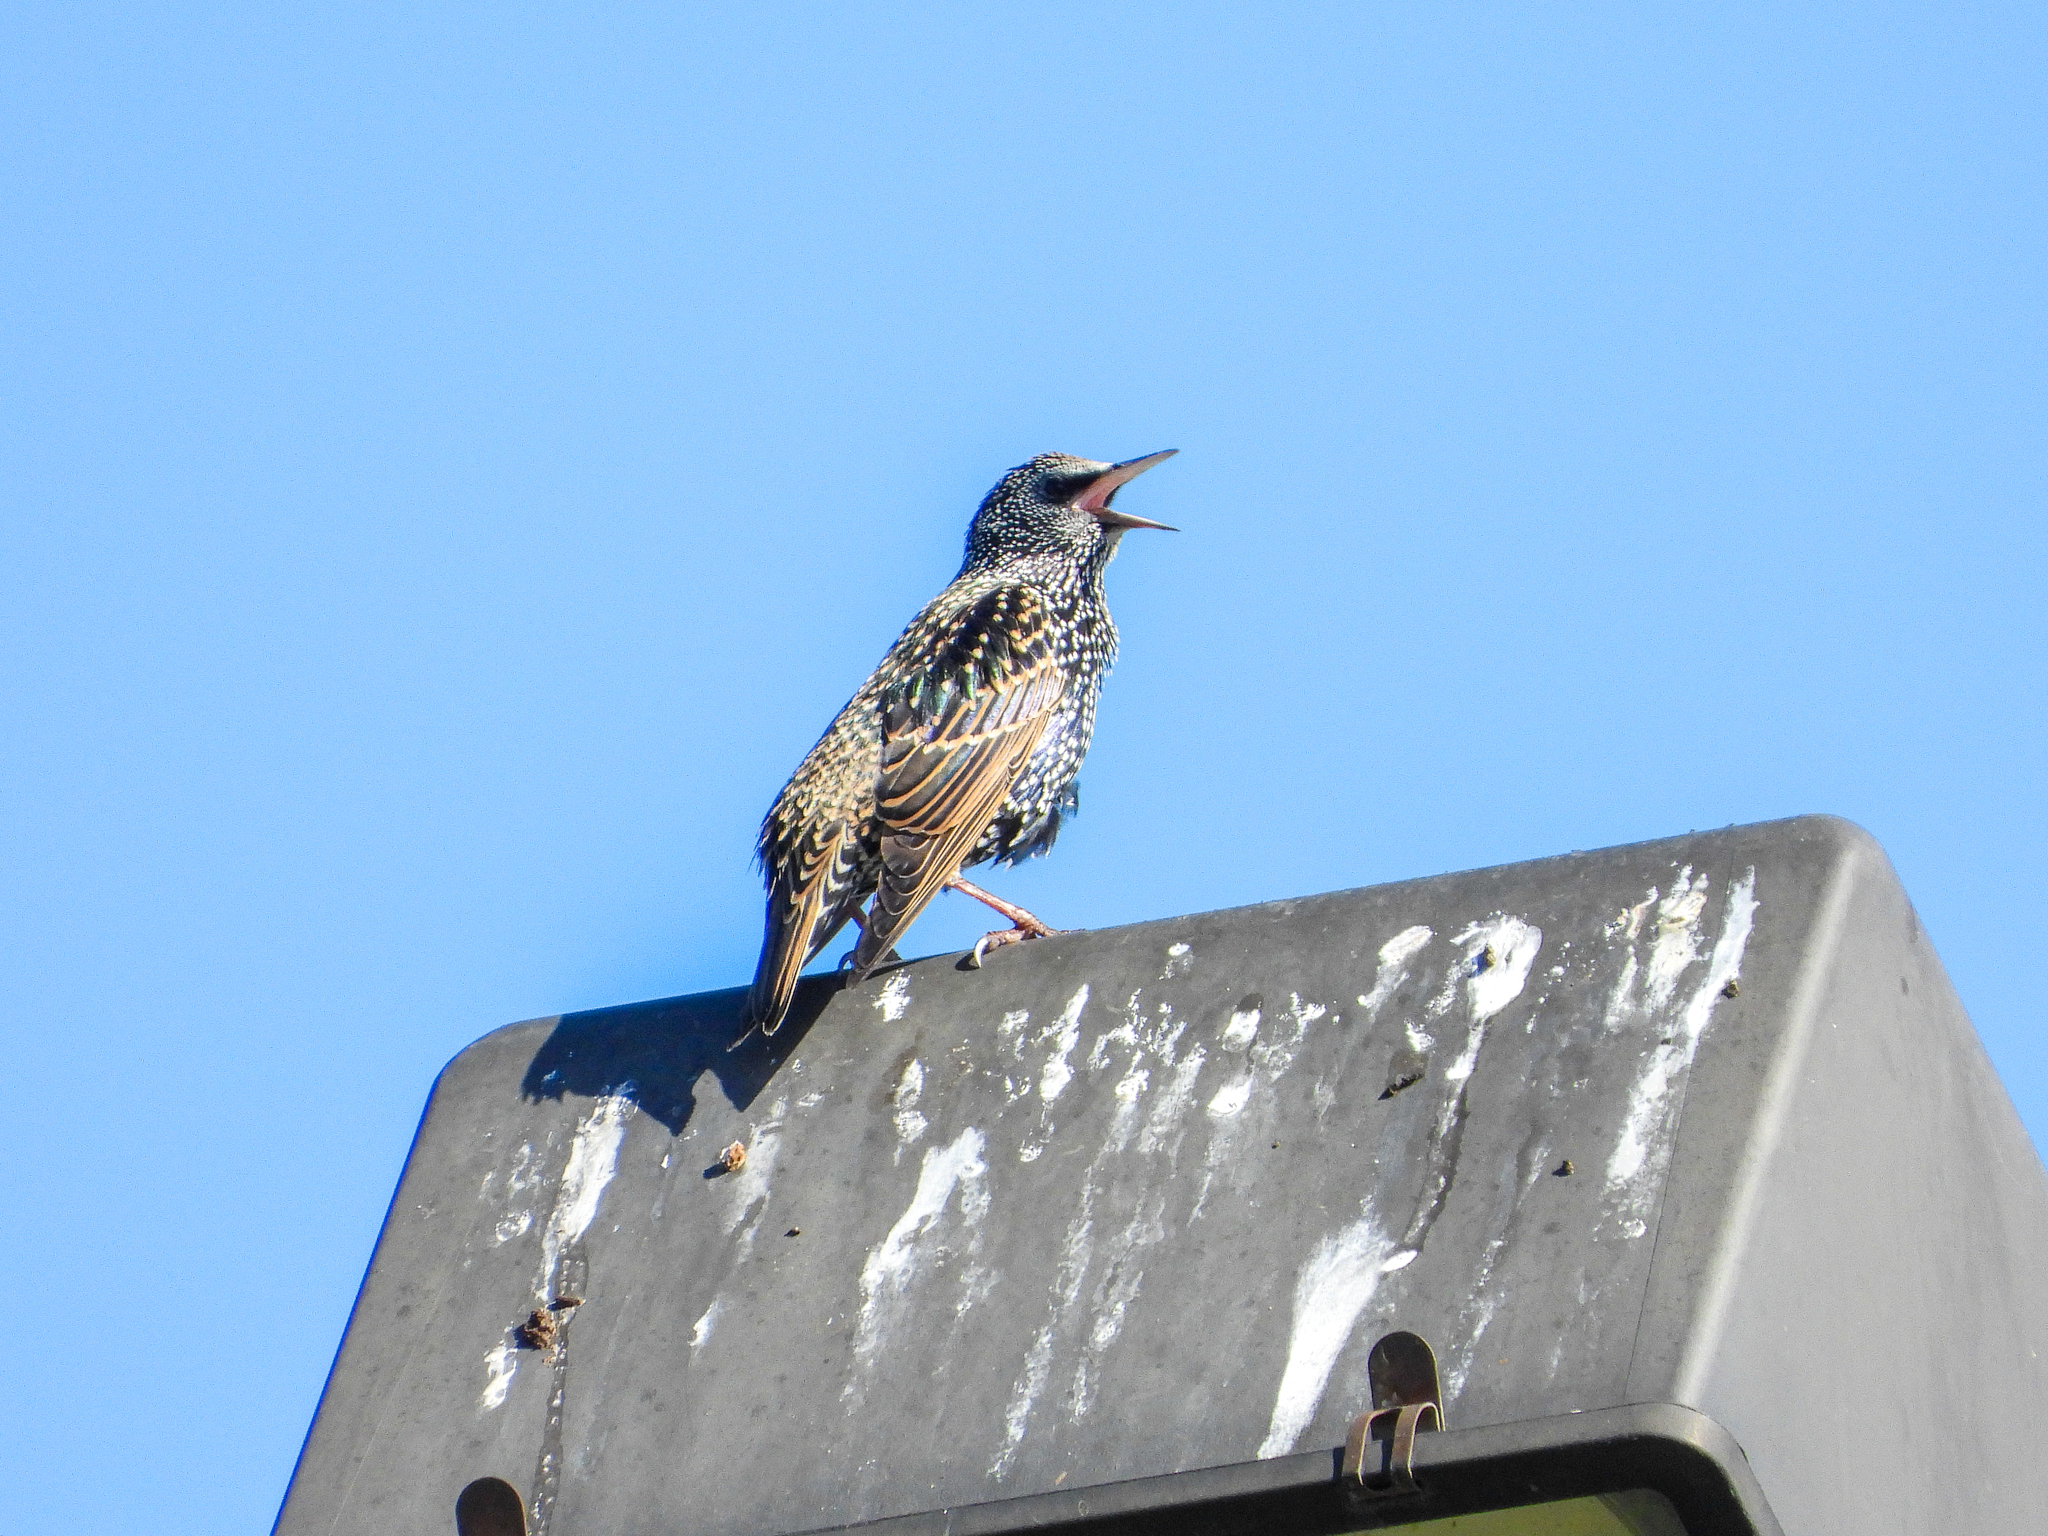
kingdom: Animalia
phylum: Chordata
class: Aves
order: Passeriformes
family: Sturnidae
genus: Sturnus
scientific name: Sturnus vulgaris
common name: Common starling
